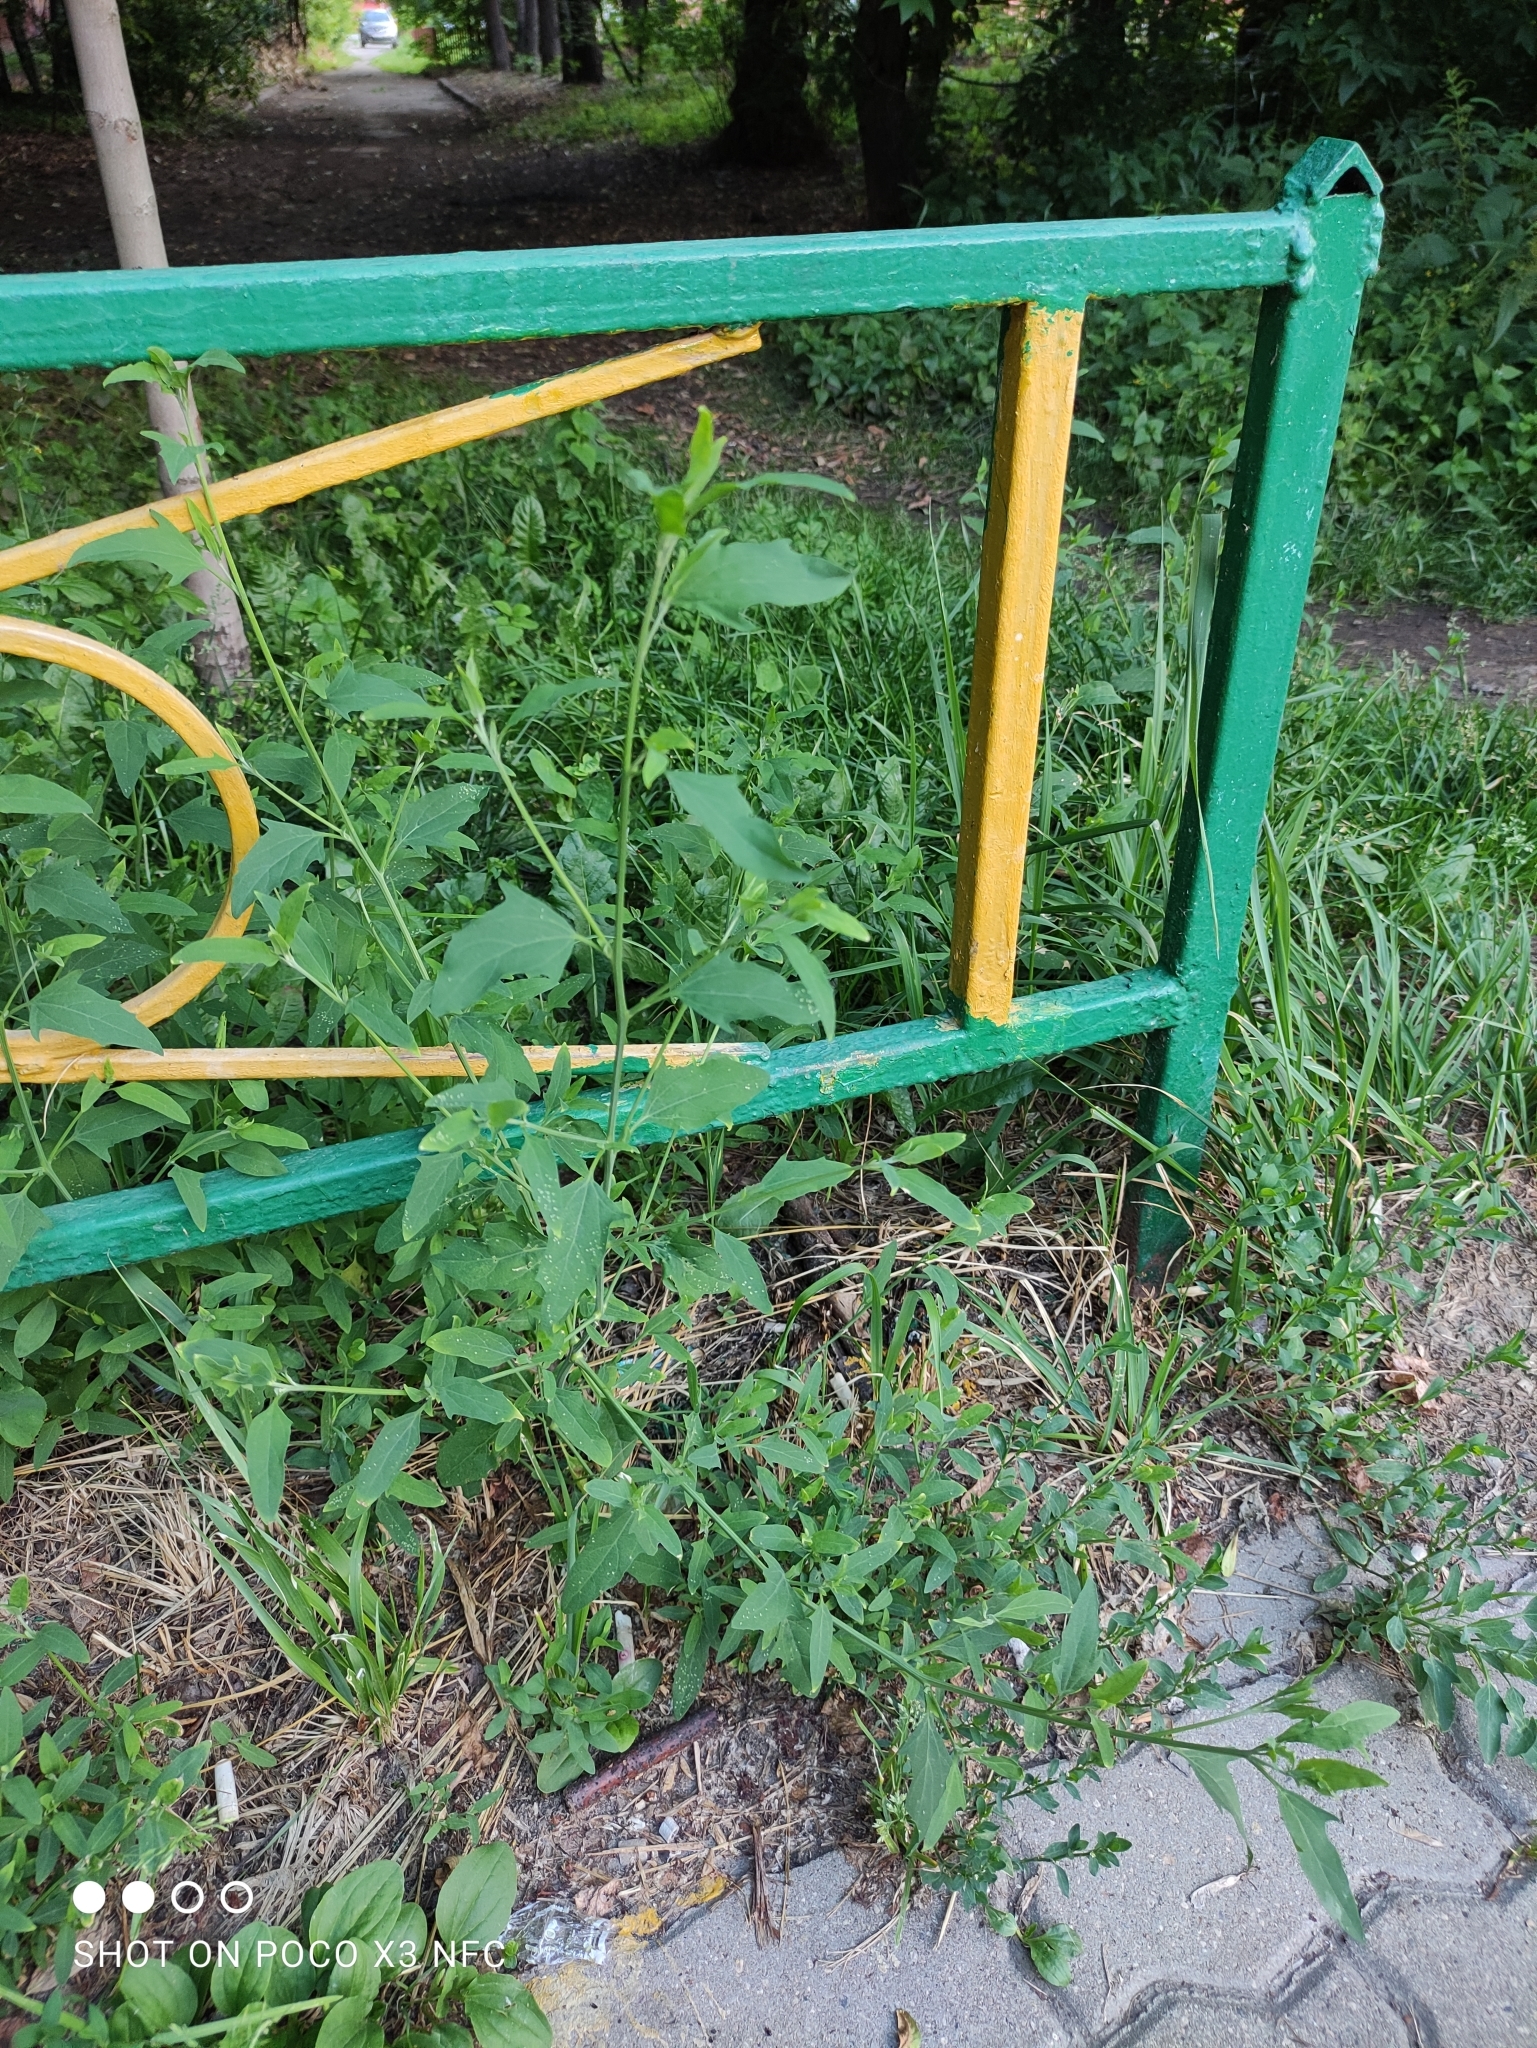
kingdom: Plantae
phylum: Tracheophyta
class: Magnoliopsida
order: Caryophyllales
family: Amaranthaceae
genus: Atriplex
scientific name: Atriplex patula
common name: Common orache
